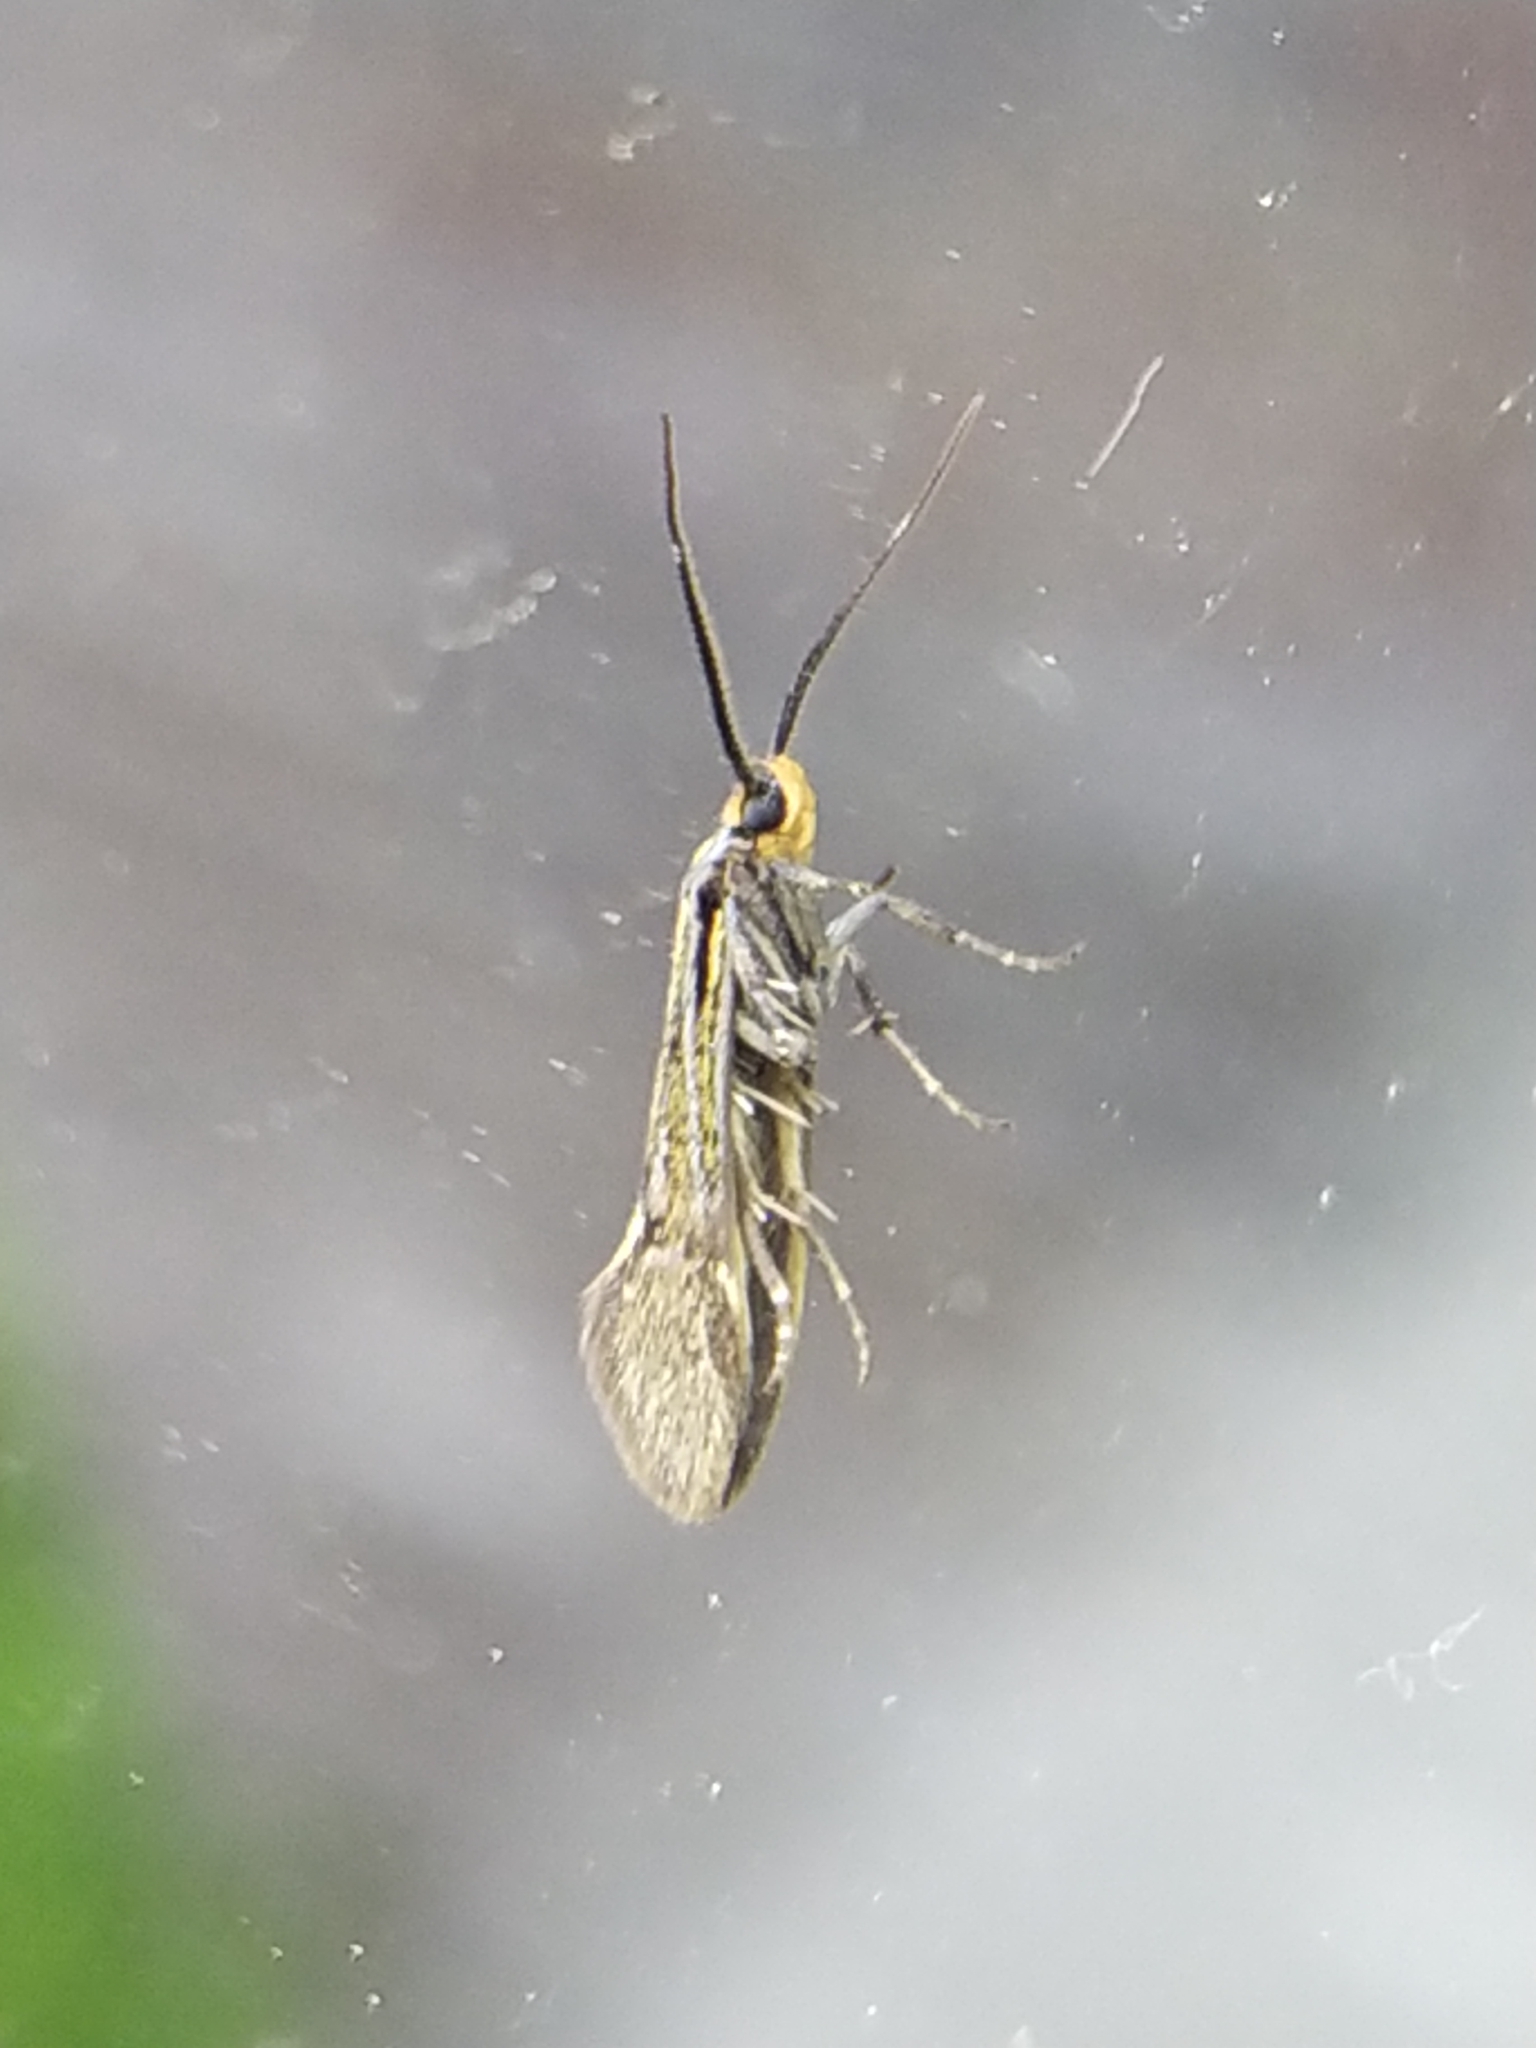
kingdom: Animalia
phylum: Arthropoda
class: Insecta
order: Lepidoptera
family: Oecophoridae
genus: Dafa
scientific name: Dafa Esperia sulphurella
